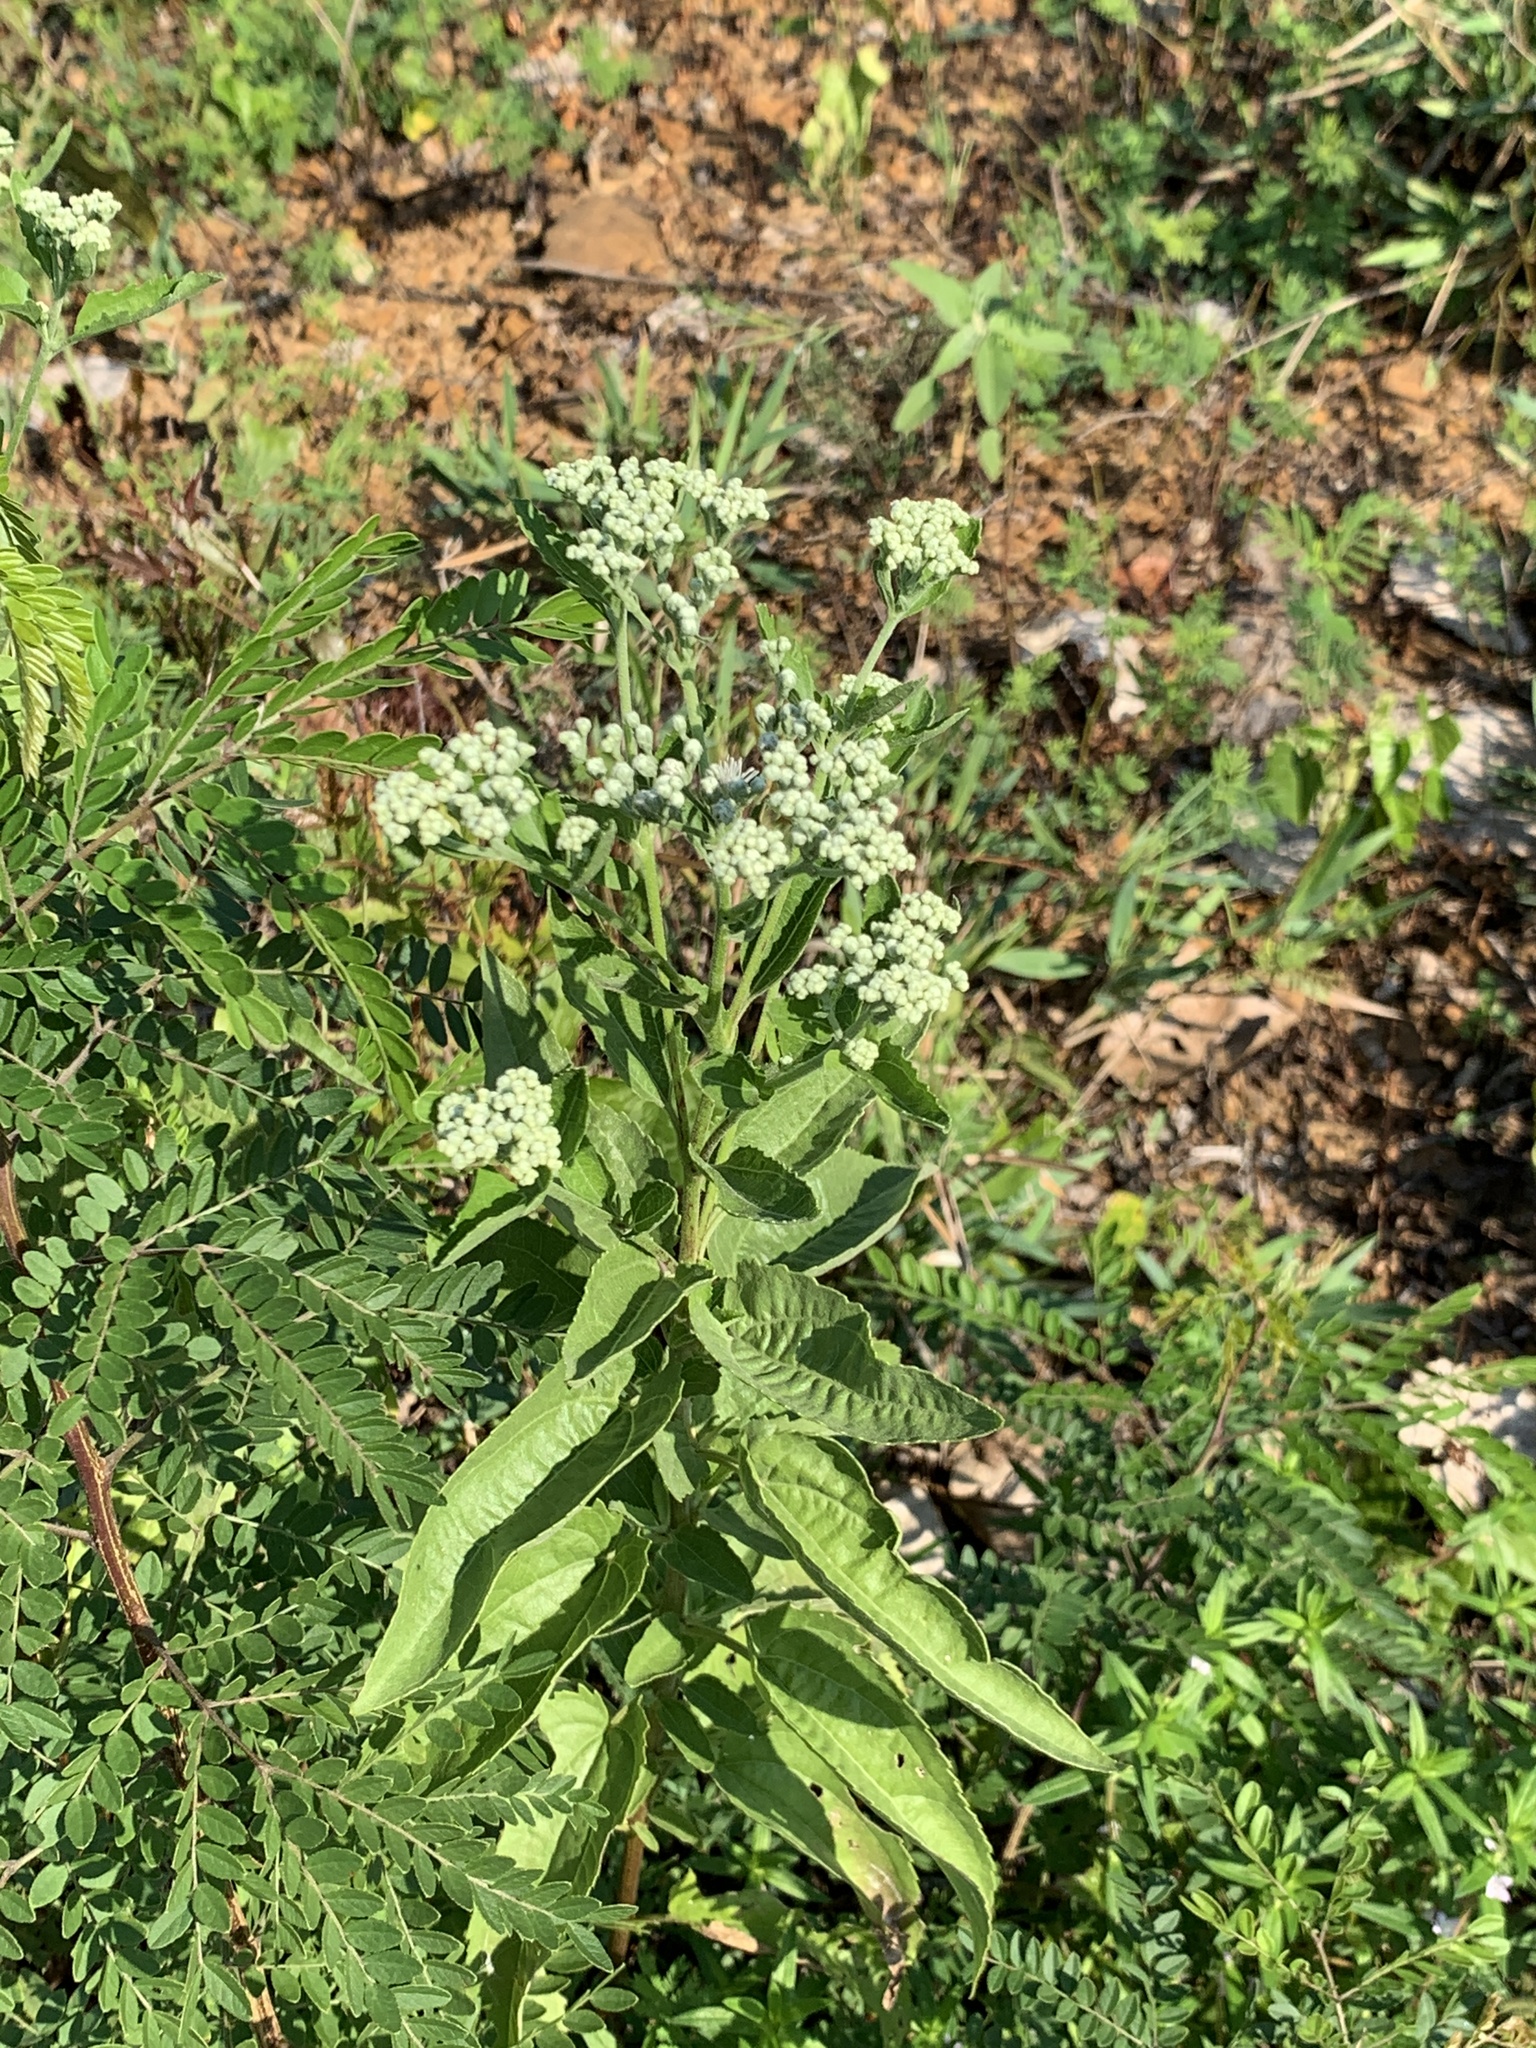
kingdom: Plantae
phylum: Tracheophyta
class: Magnoliopsida
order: Asterales
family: Asteraceae
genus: Eupatorium
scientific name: Eupatorium serotinum
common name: Late boneset
